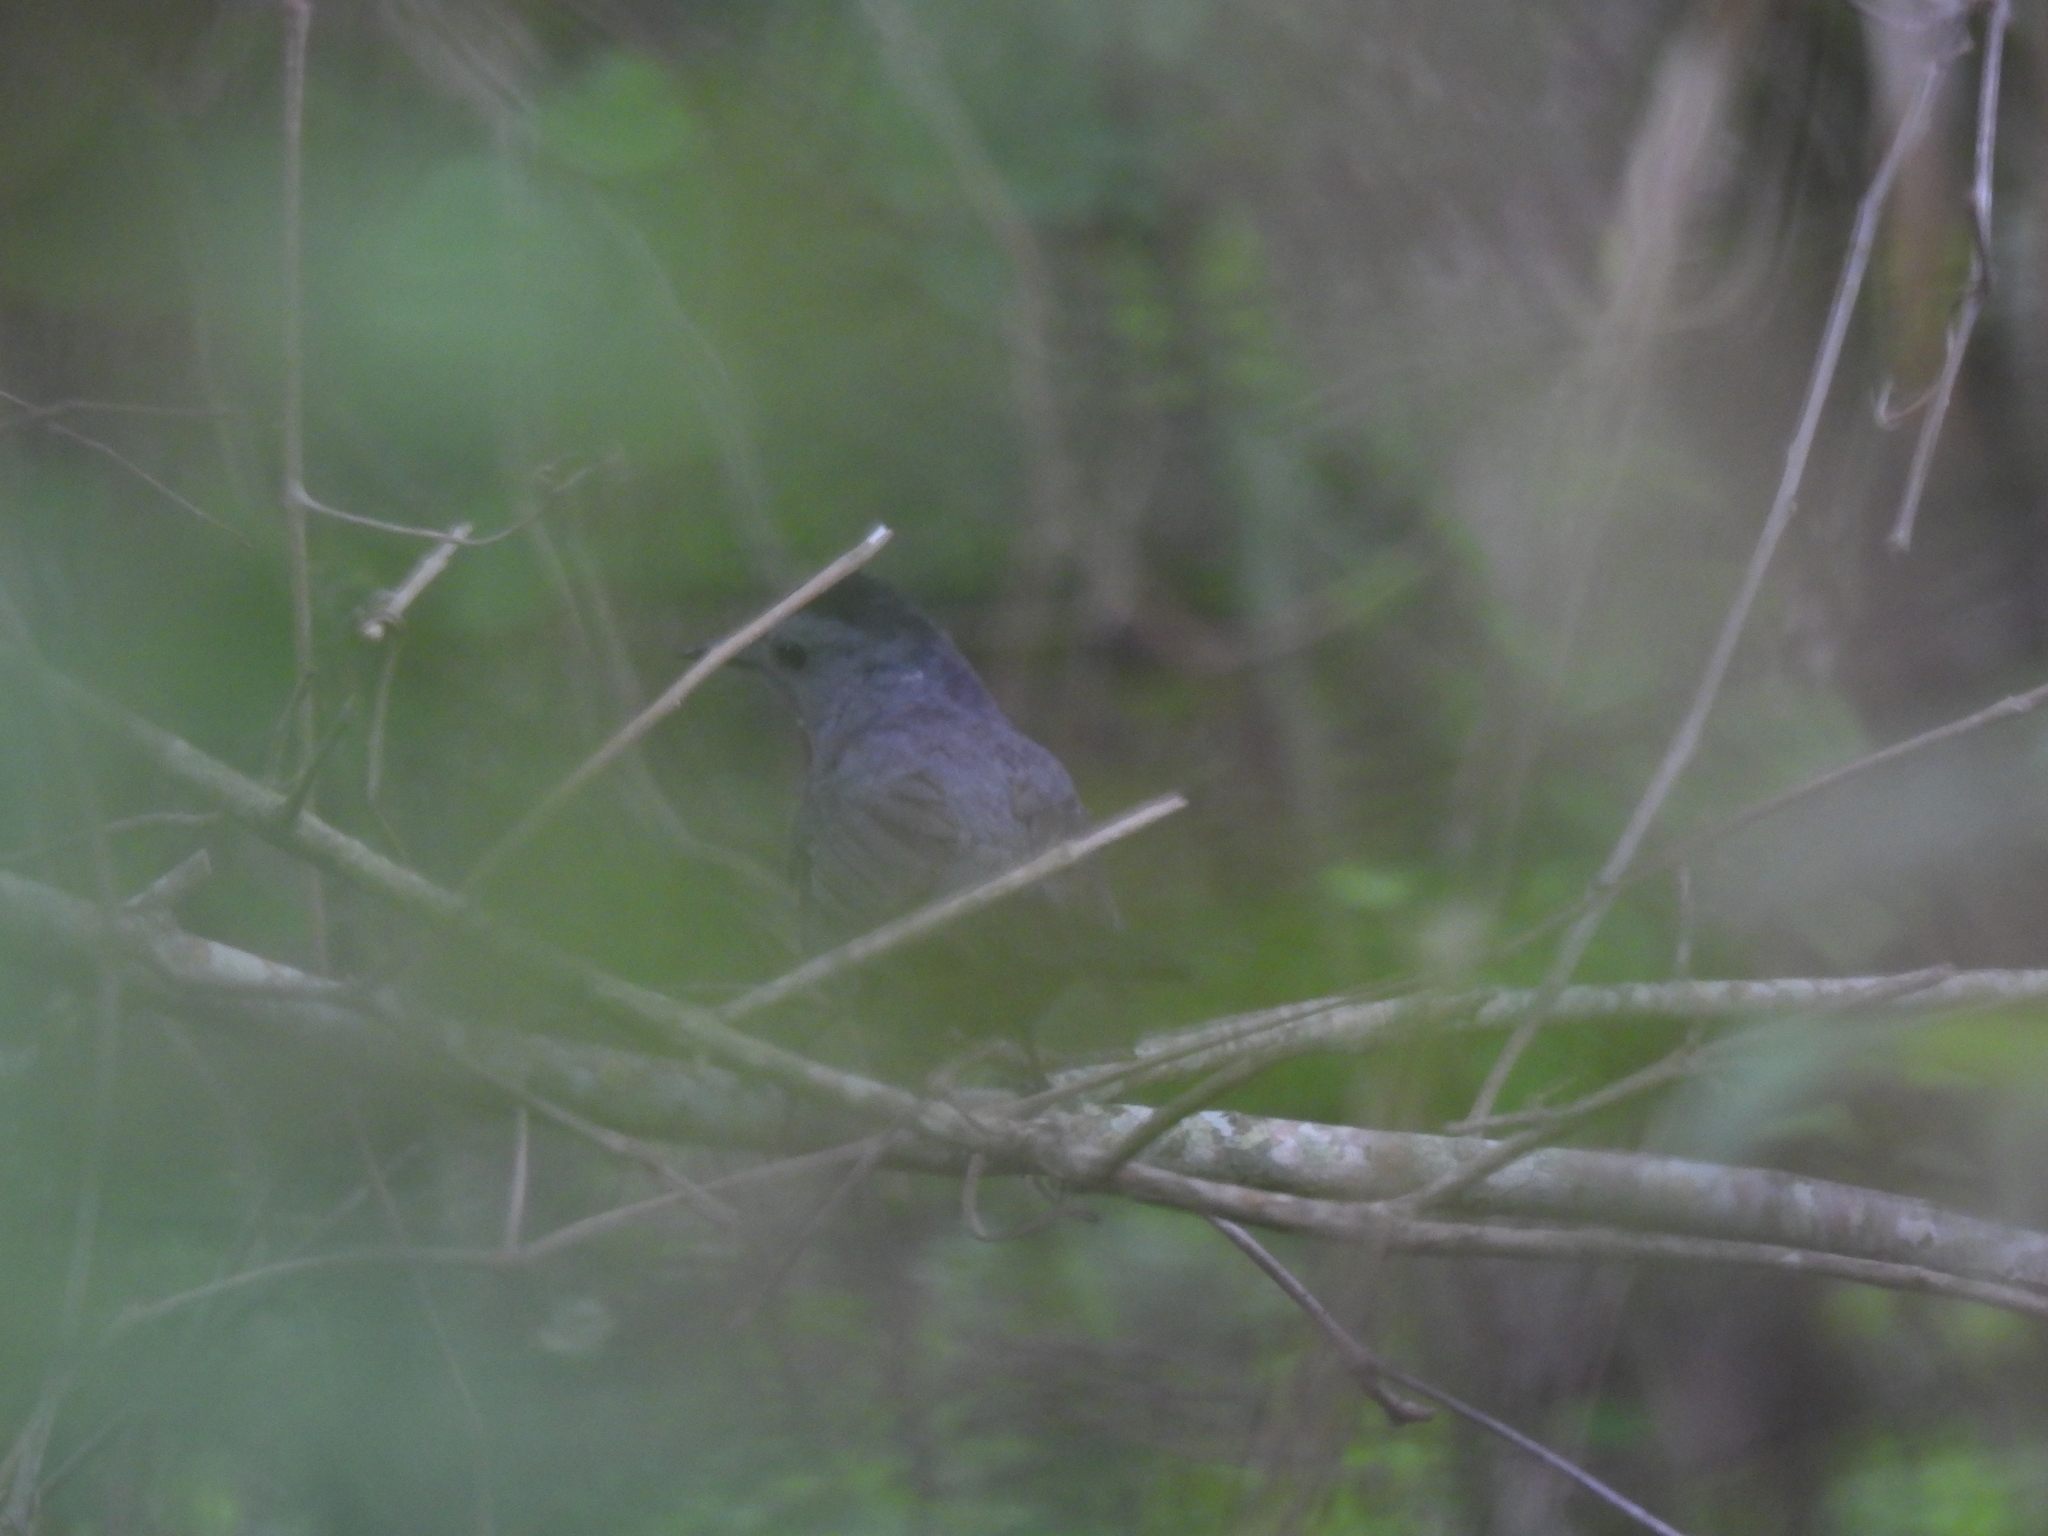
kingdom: Animalia
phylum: Chordata
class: Aves
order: Passeriformes
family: Mimidae
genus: Dumetella
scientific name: Dumetella carolinensis
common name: Gray catbird
